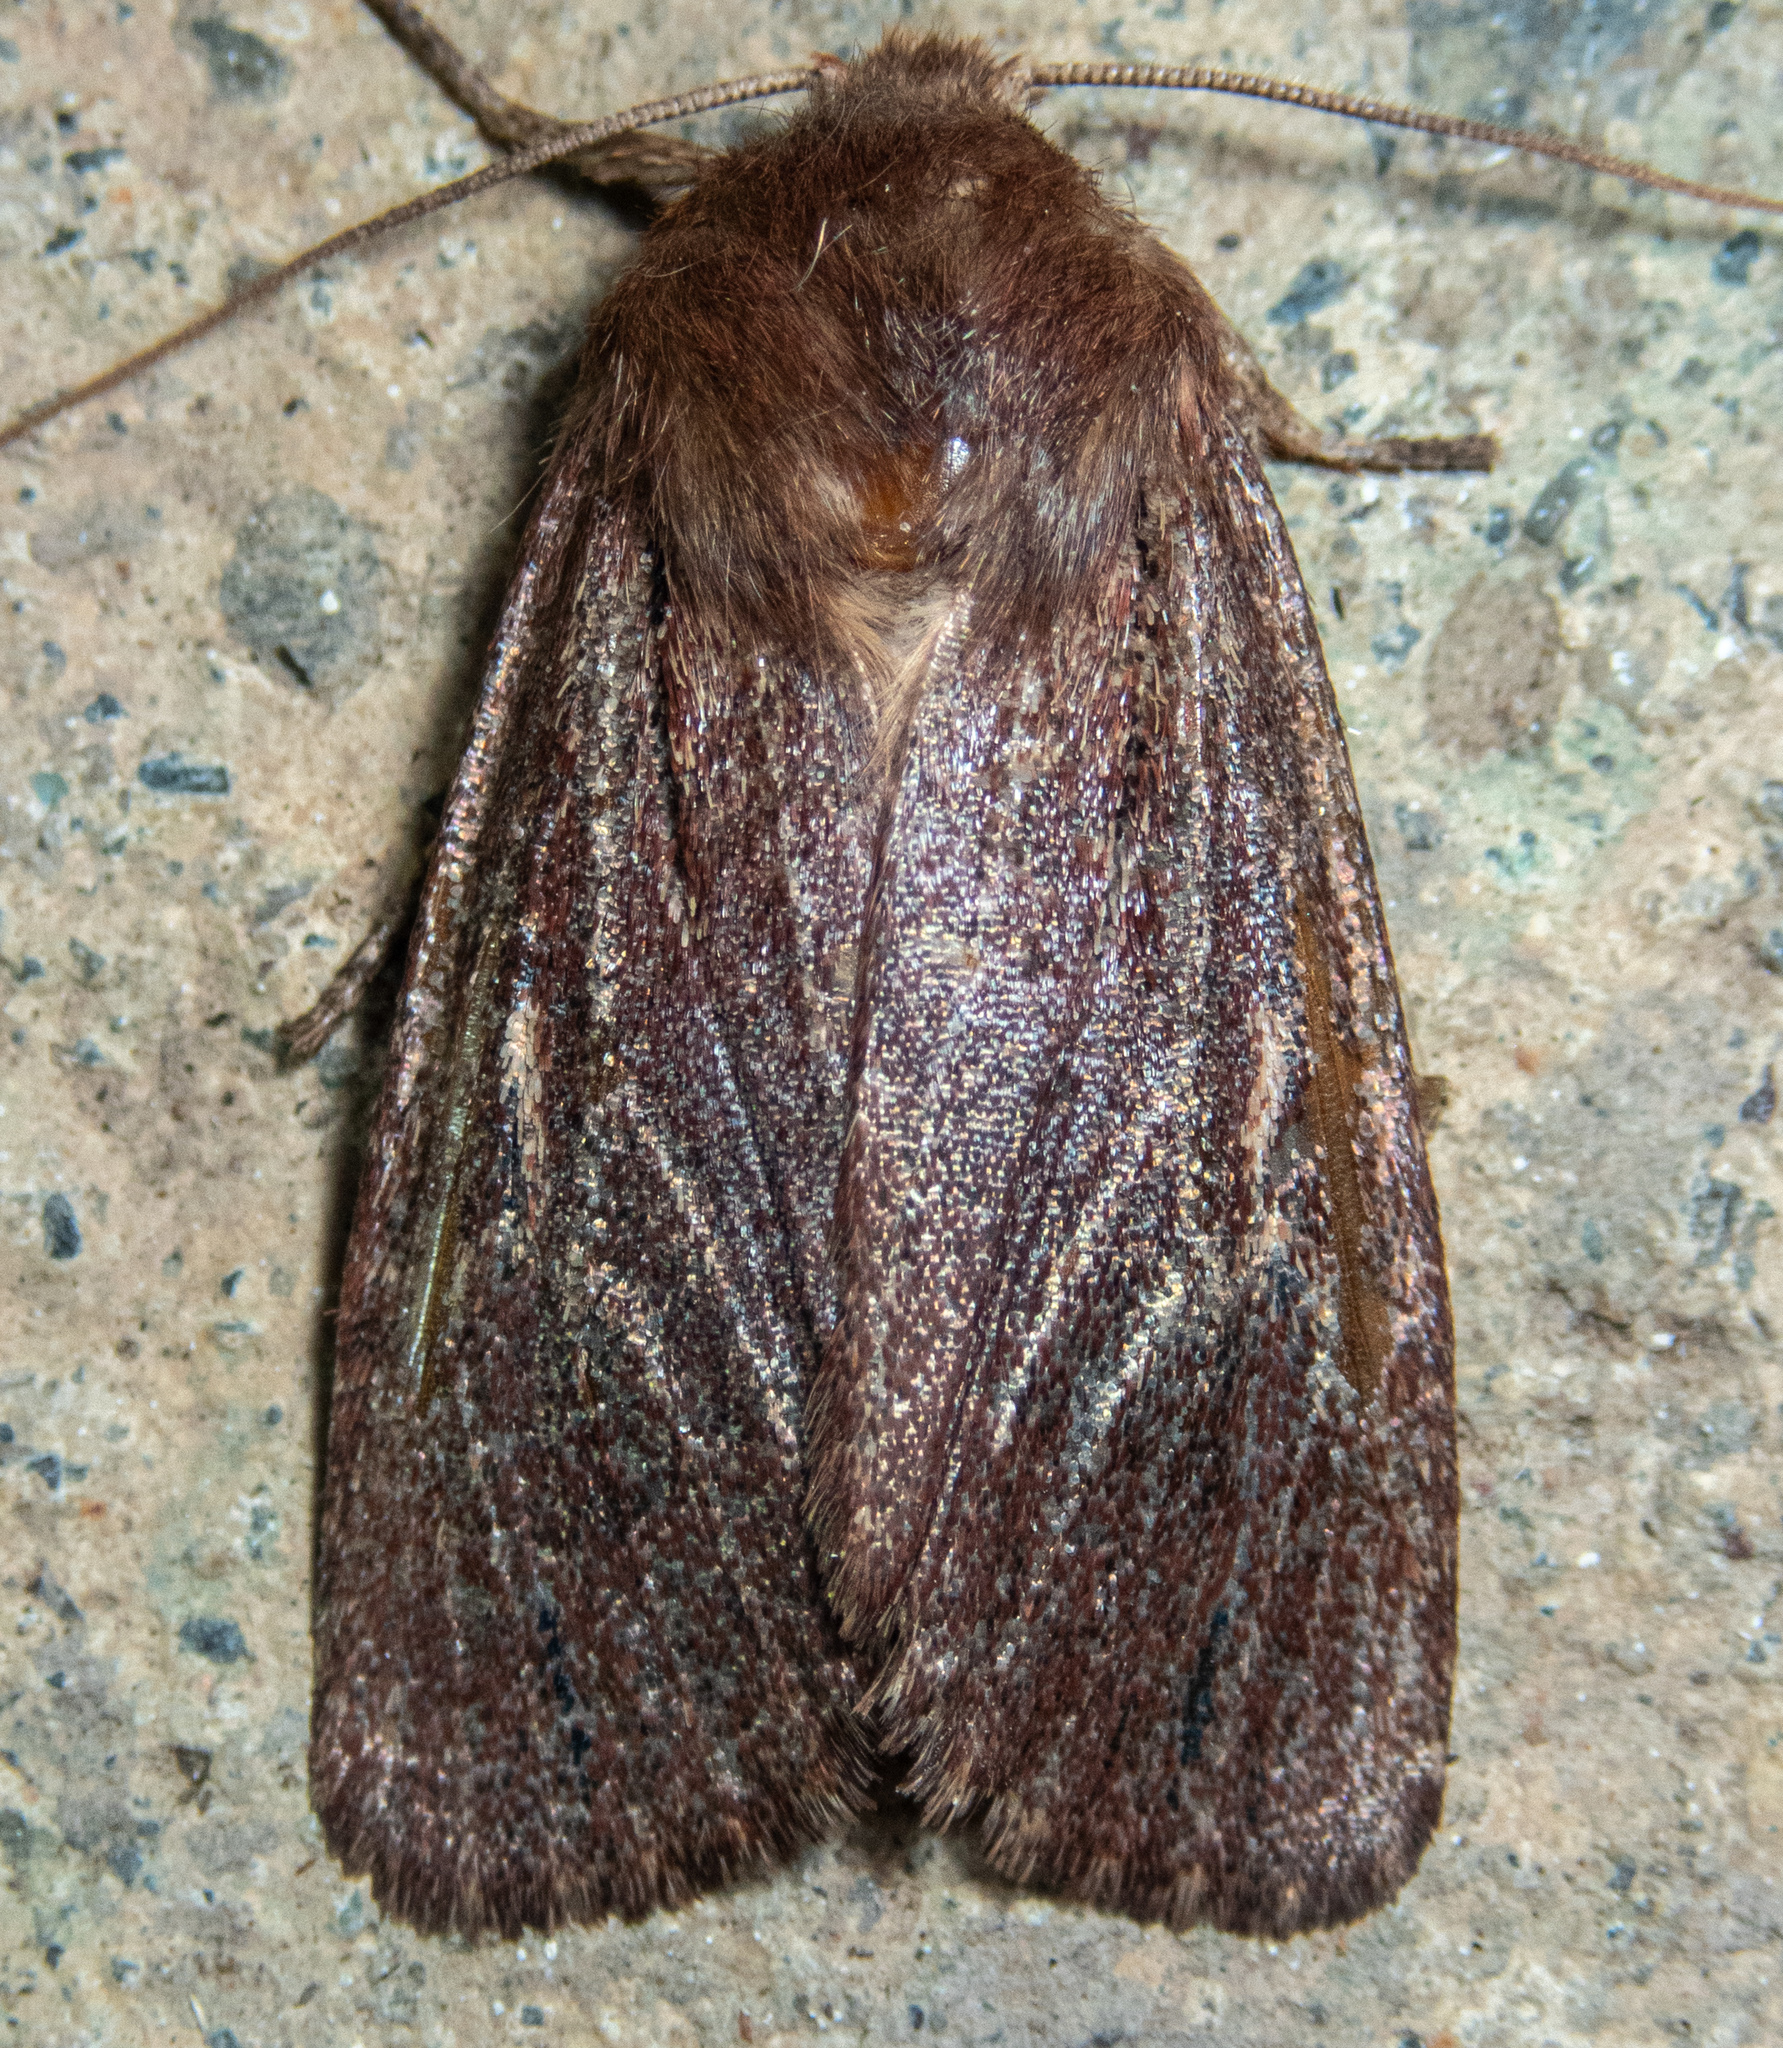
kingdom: Animalia
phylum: Arthropoda
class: Insecta
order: Lepidoptera
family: Noctuidae
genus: Ufeus
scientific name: Ufeus satyricus
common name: Brown satyr moth
